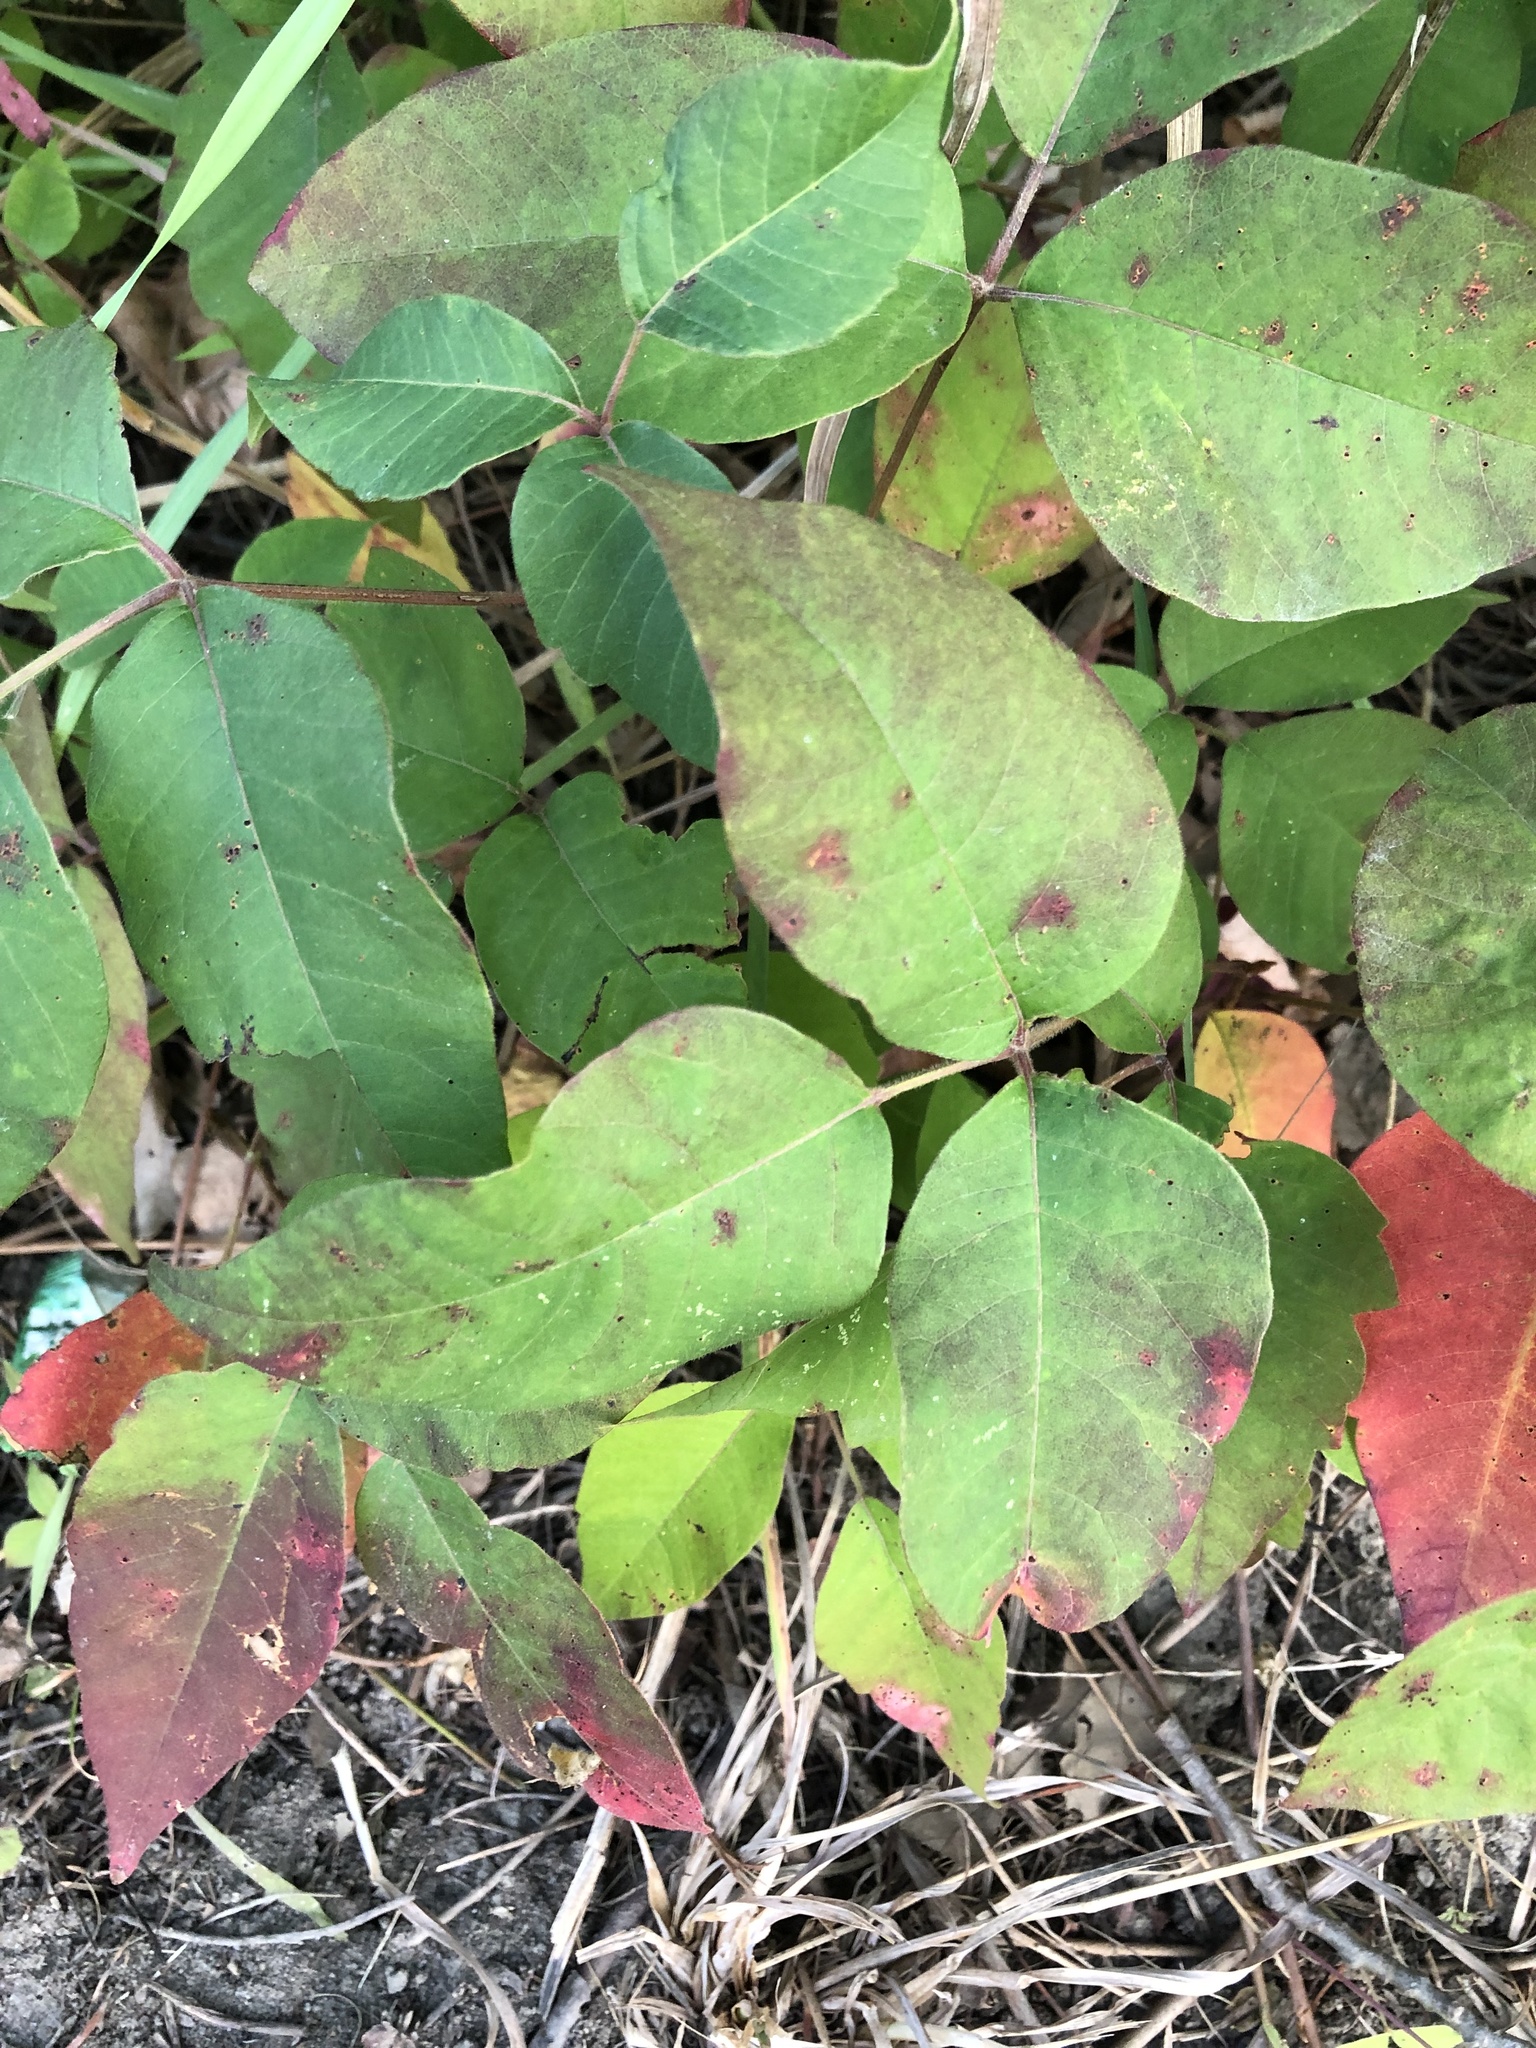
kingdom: Plantae
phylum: Tracheophyta
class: Magnoliopsida
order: Sapindales
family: Anacardiaceae
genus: Toxicodendron
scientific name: Toxicodendron radicans
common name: Poison ivy
